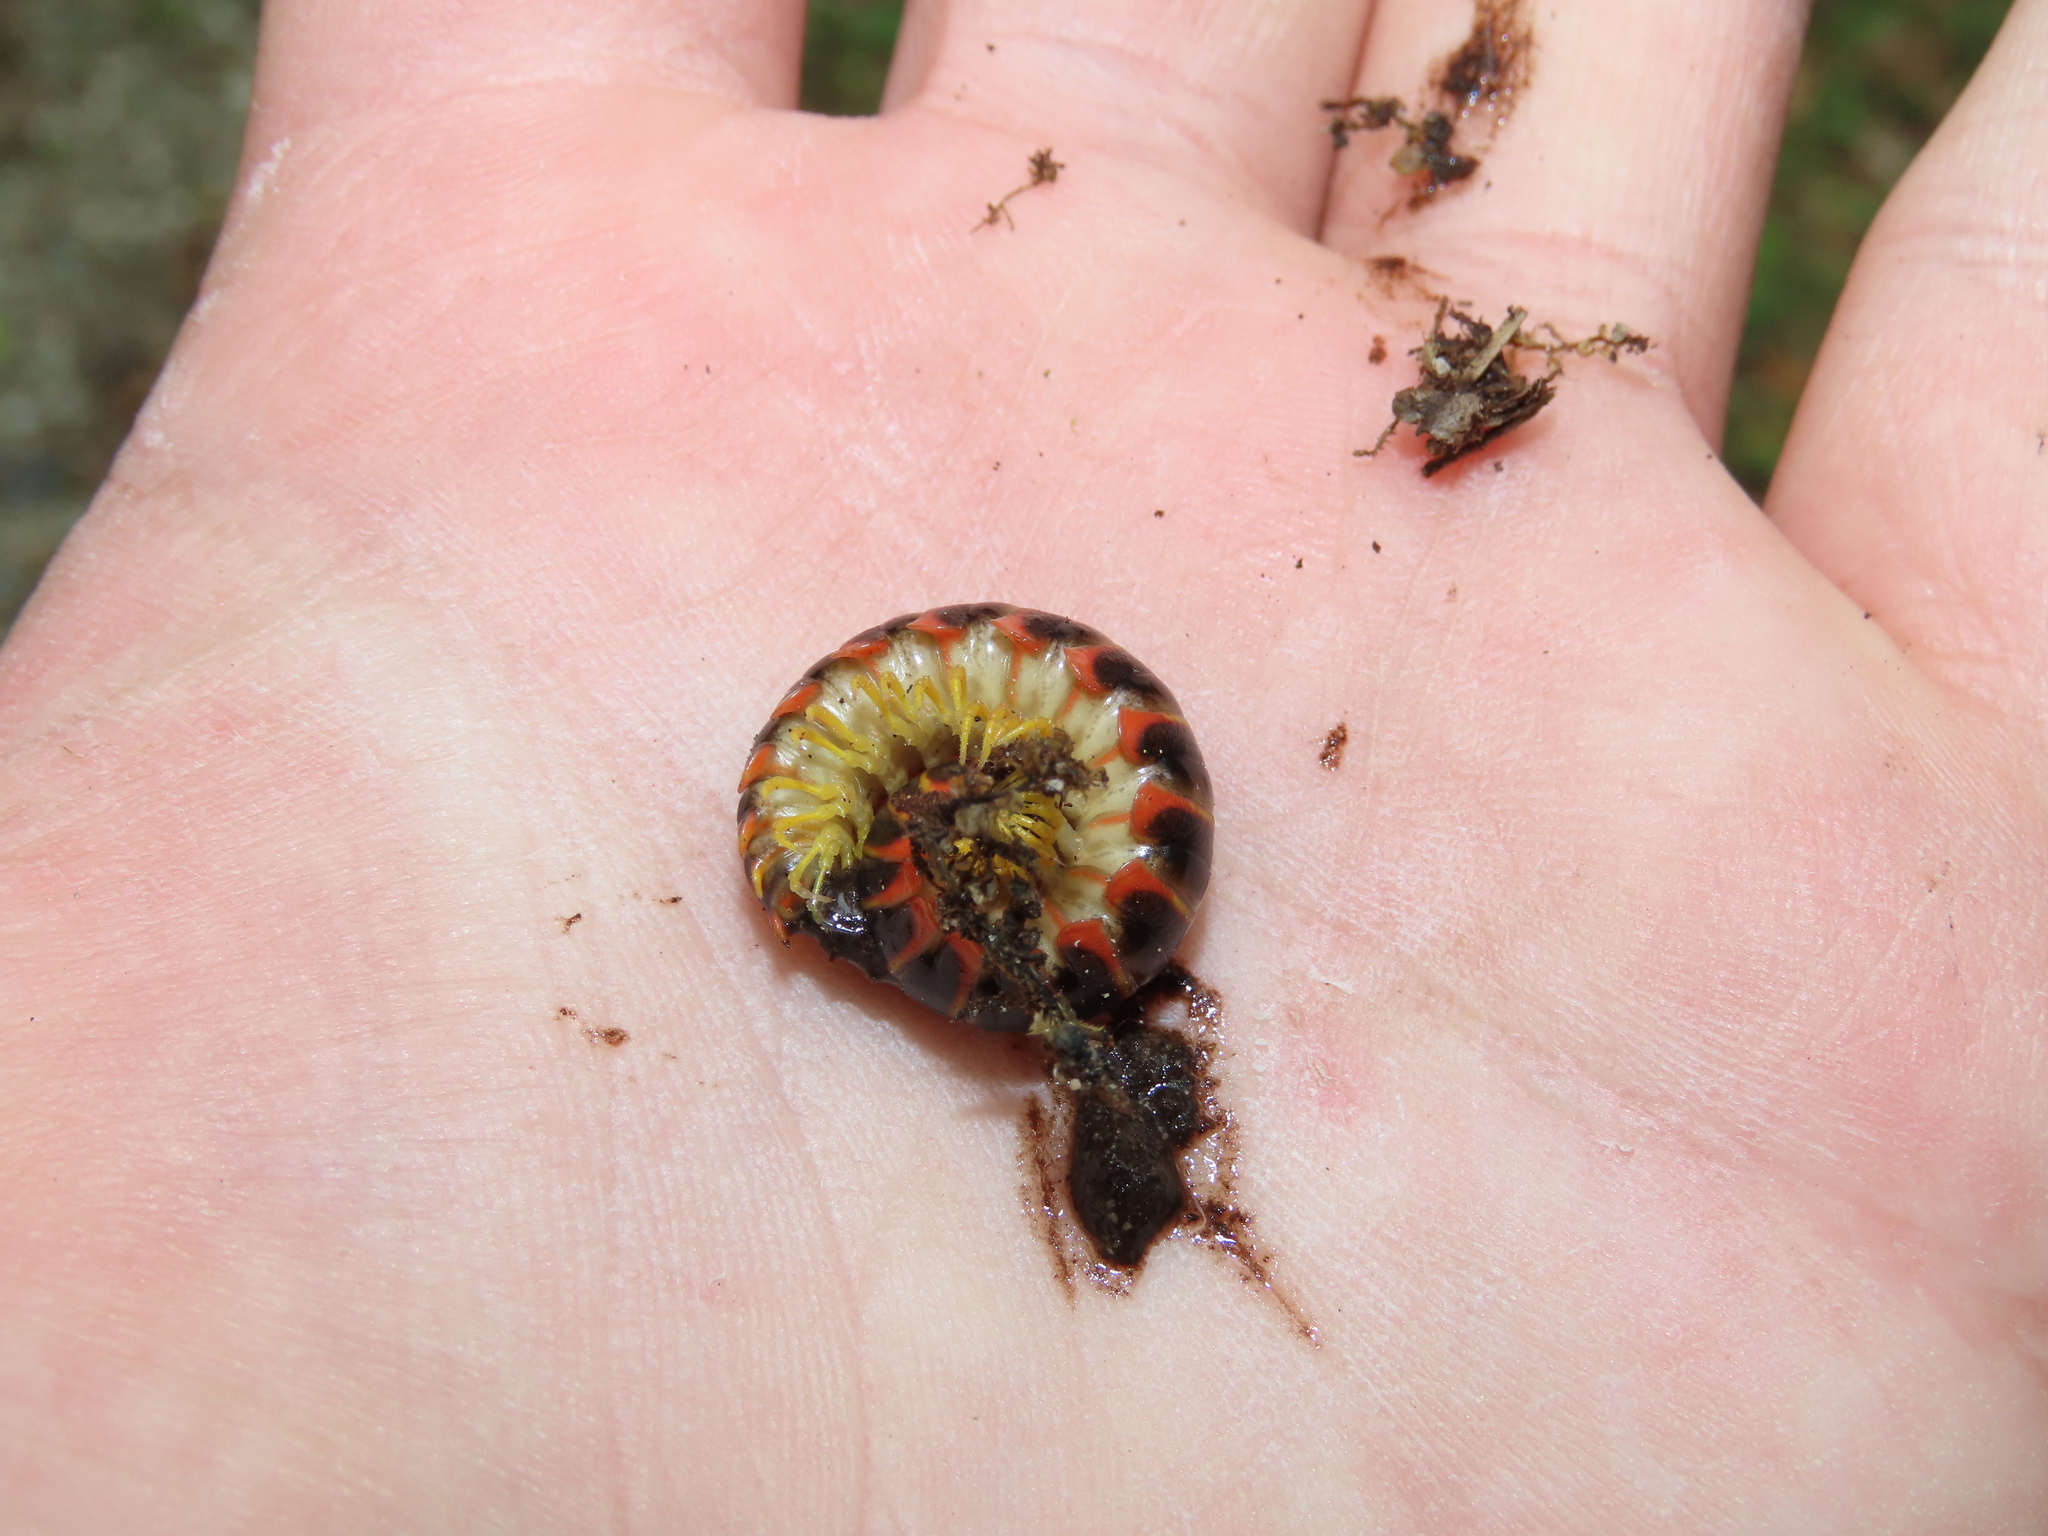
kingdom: Animalia
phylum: Arthropoda
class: Diplopoda
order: Polydesmida
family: Xystodesmidae
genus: Apheloria
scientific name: Apheloria virginiensis
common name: Black-and-gold flat millipede
